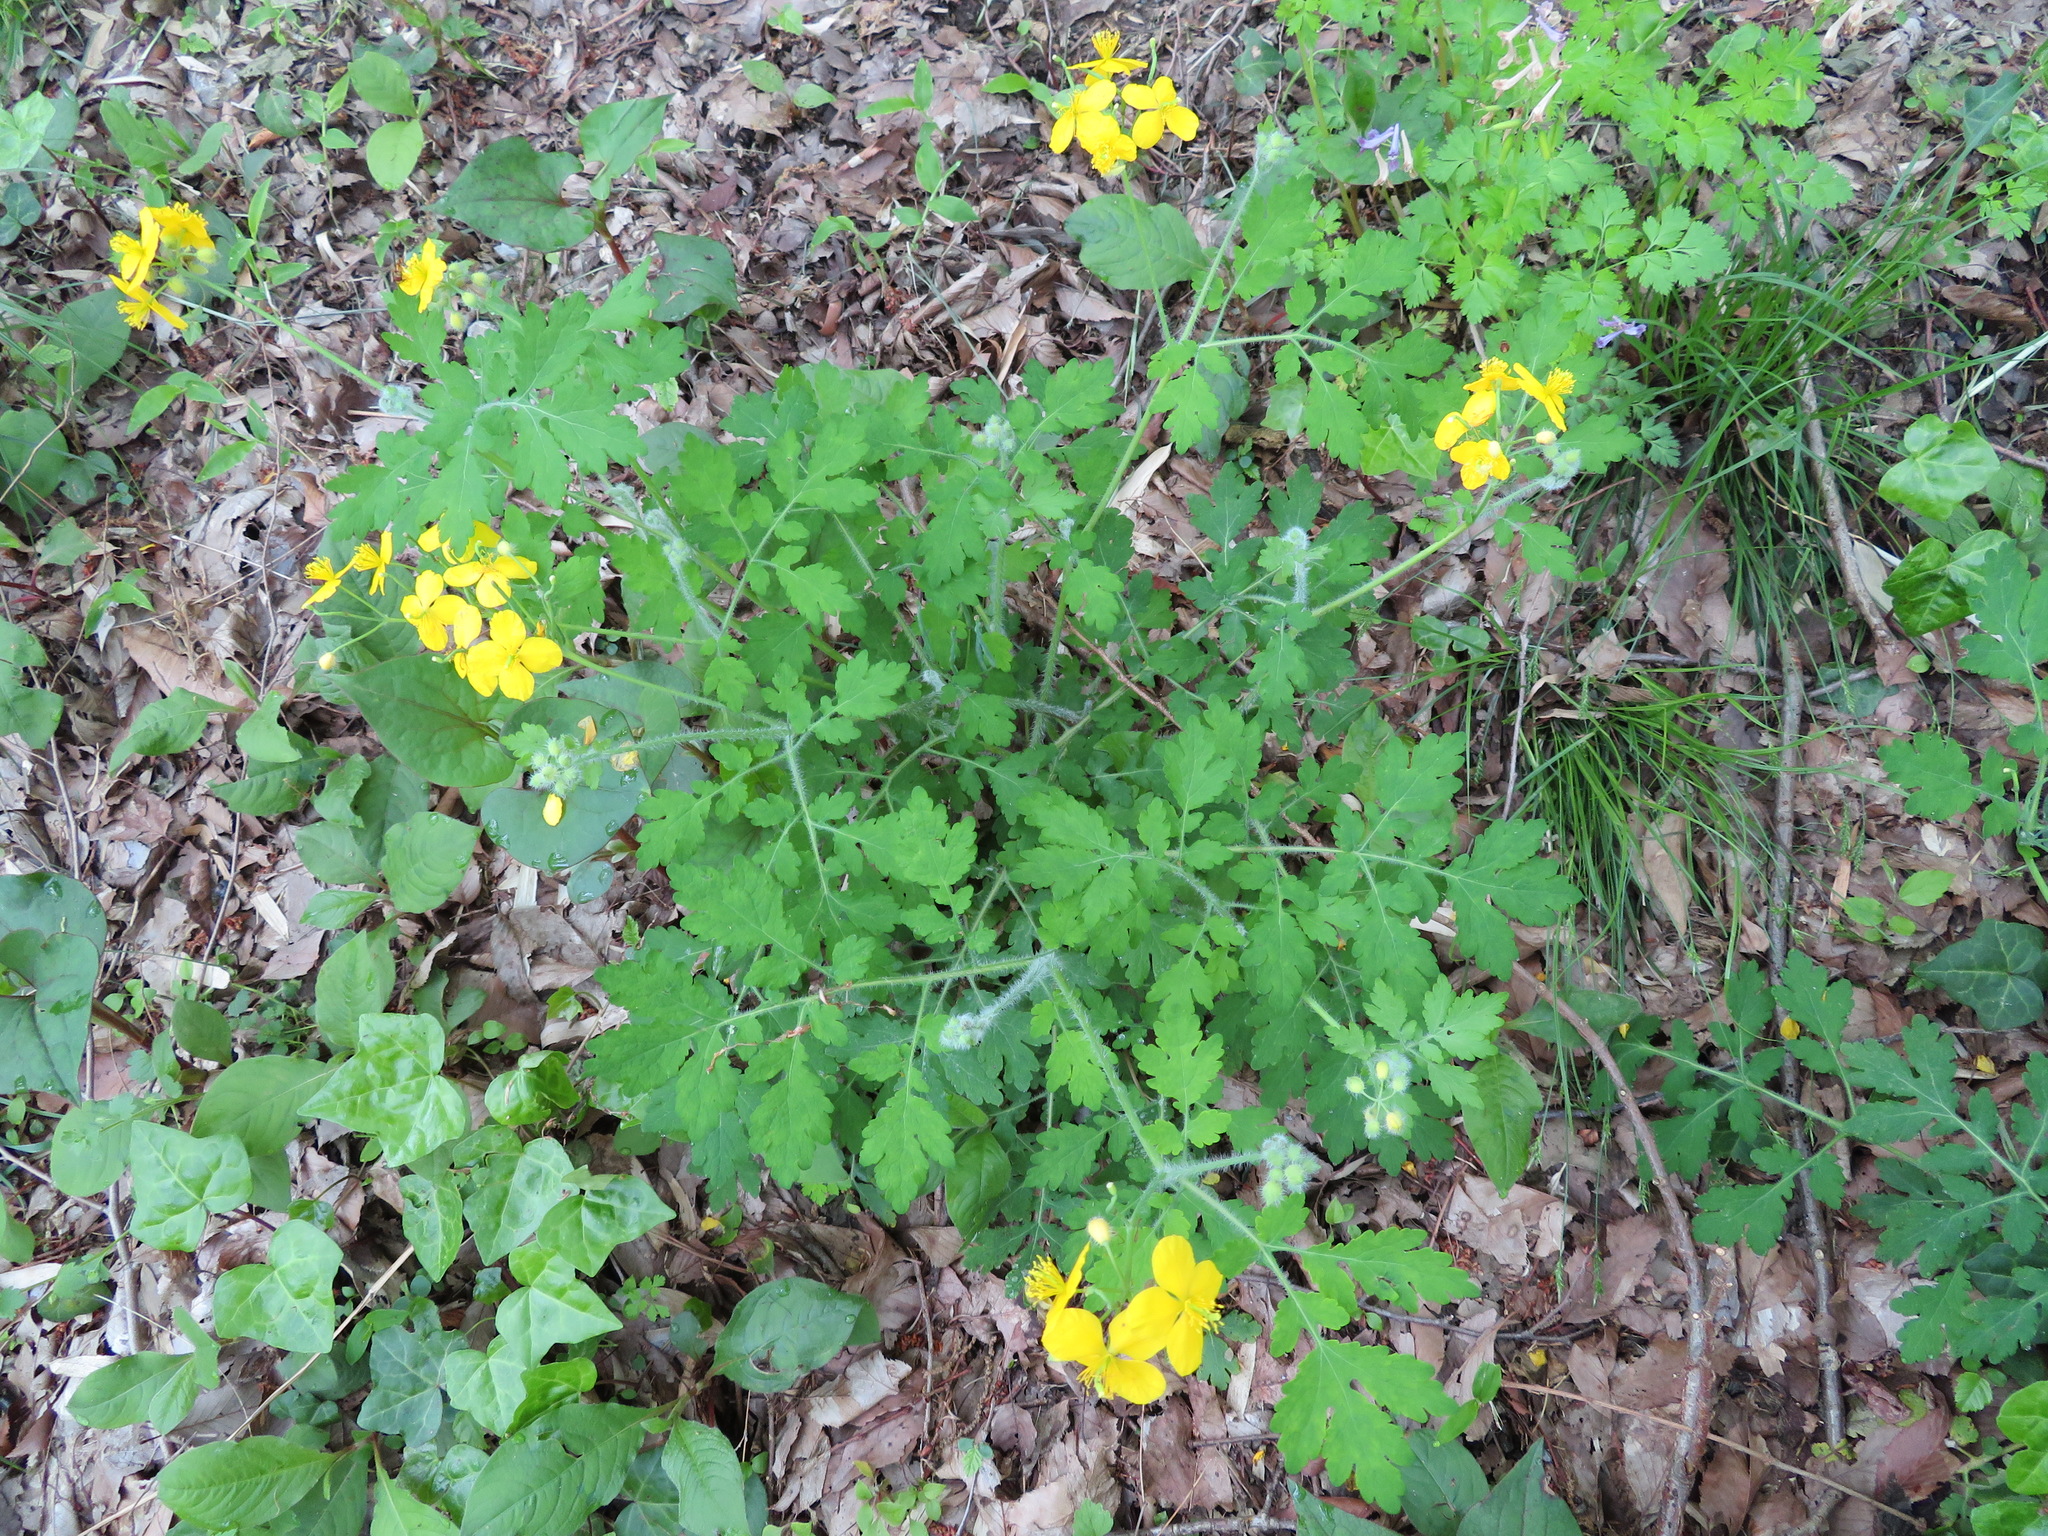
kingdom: Plantae
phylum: Tracheophyta
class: Magnoliopsida
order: Ranunculales
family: Papaveraceae
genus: Chelidonium
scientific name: Chelidonium majus
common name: Greater celandine
